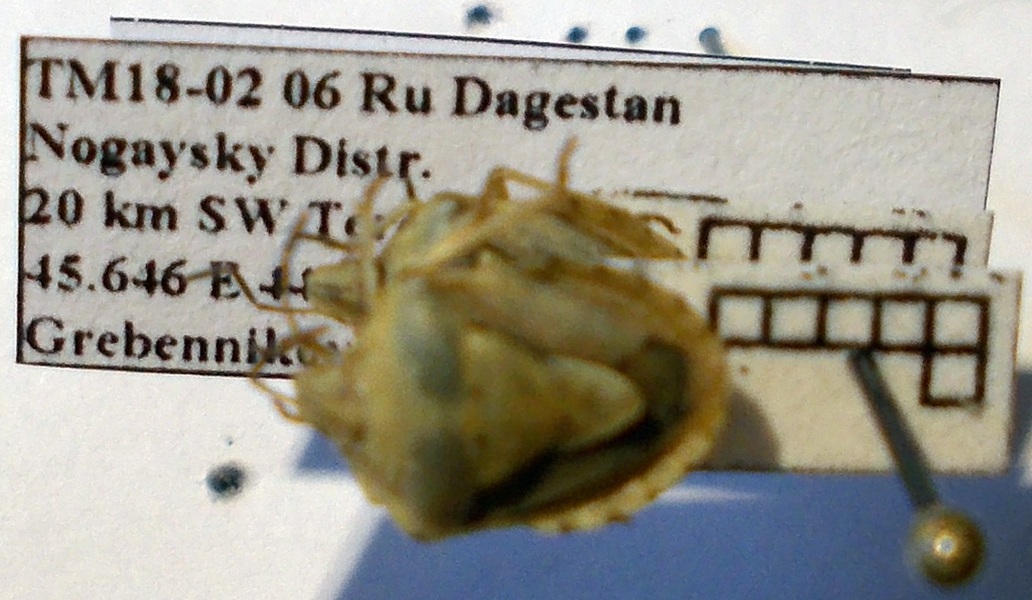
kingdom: Animalia
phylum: Arthropoda
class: Insecta
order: Hemiptera
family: Pentatomidae
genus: Antheminia
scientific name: Antheminia lunulata
